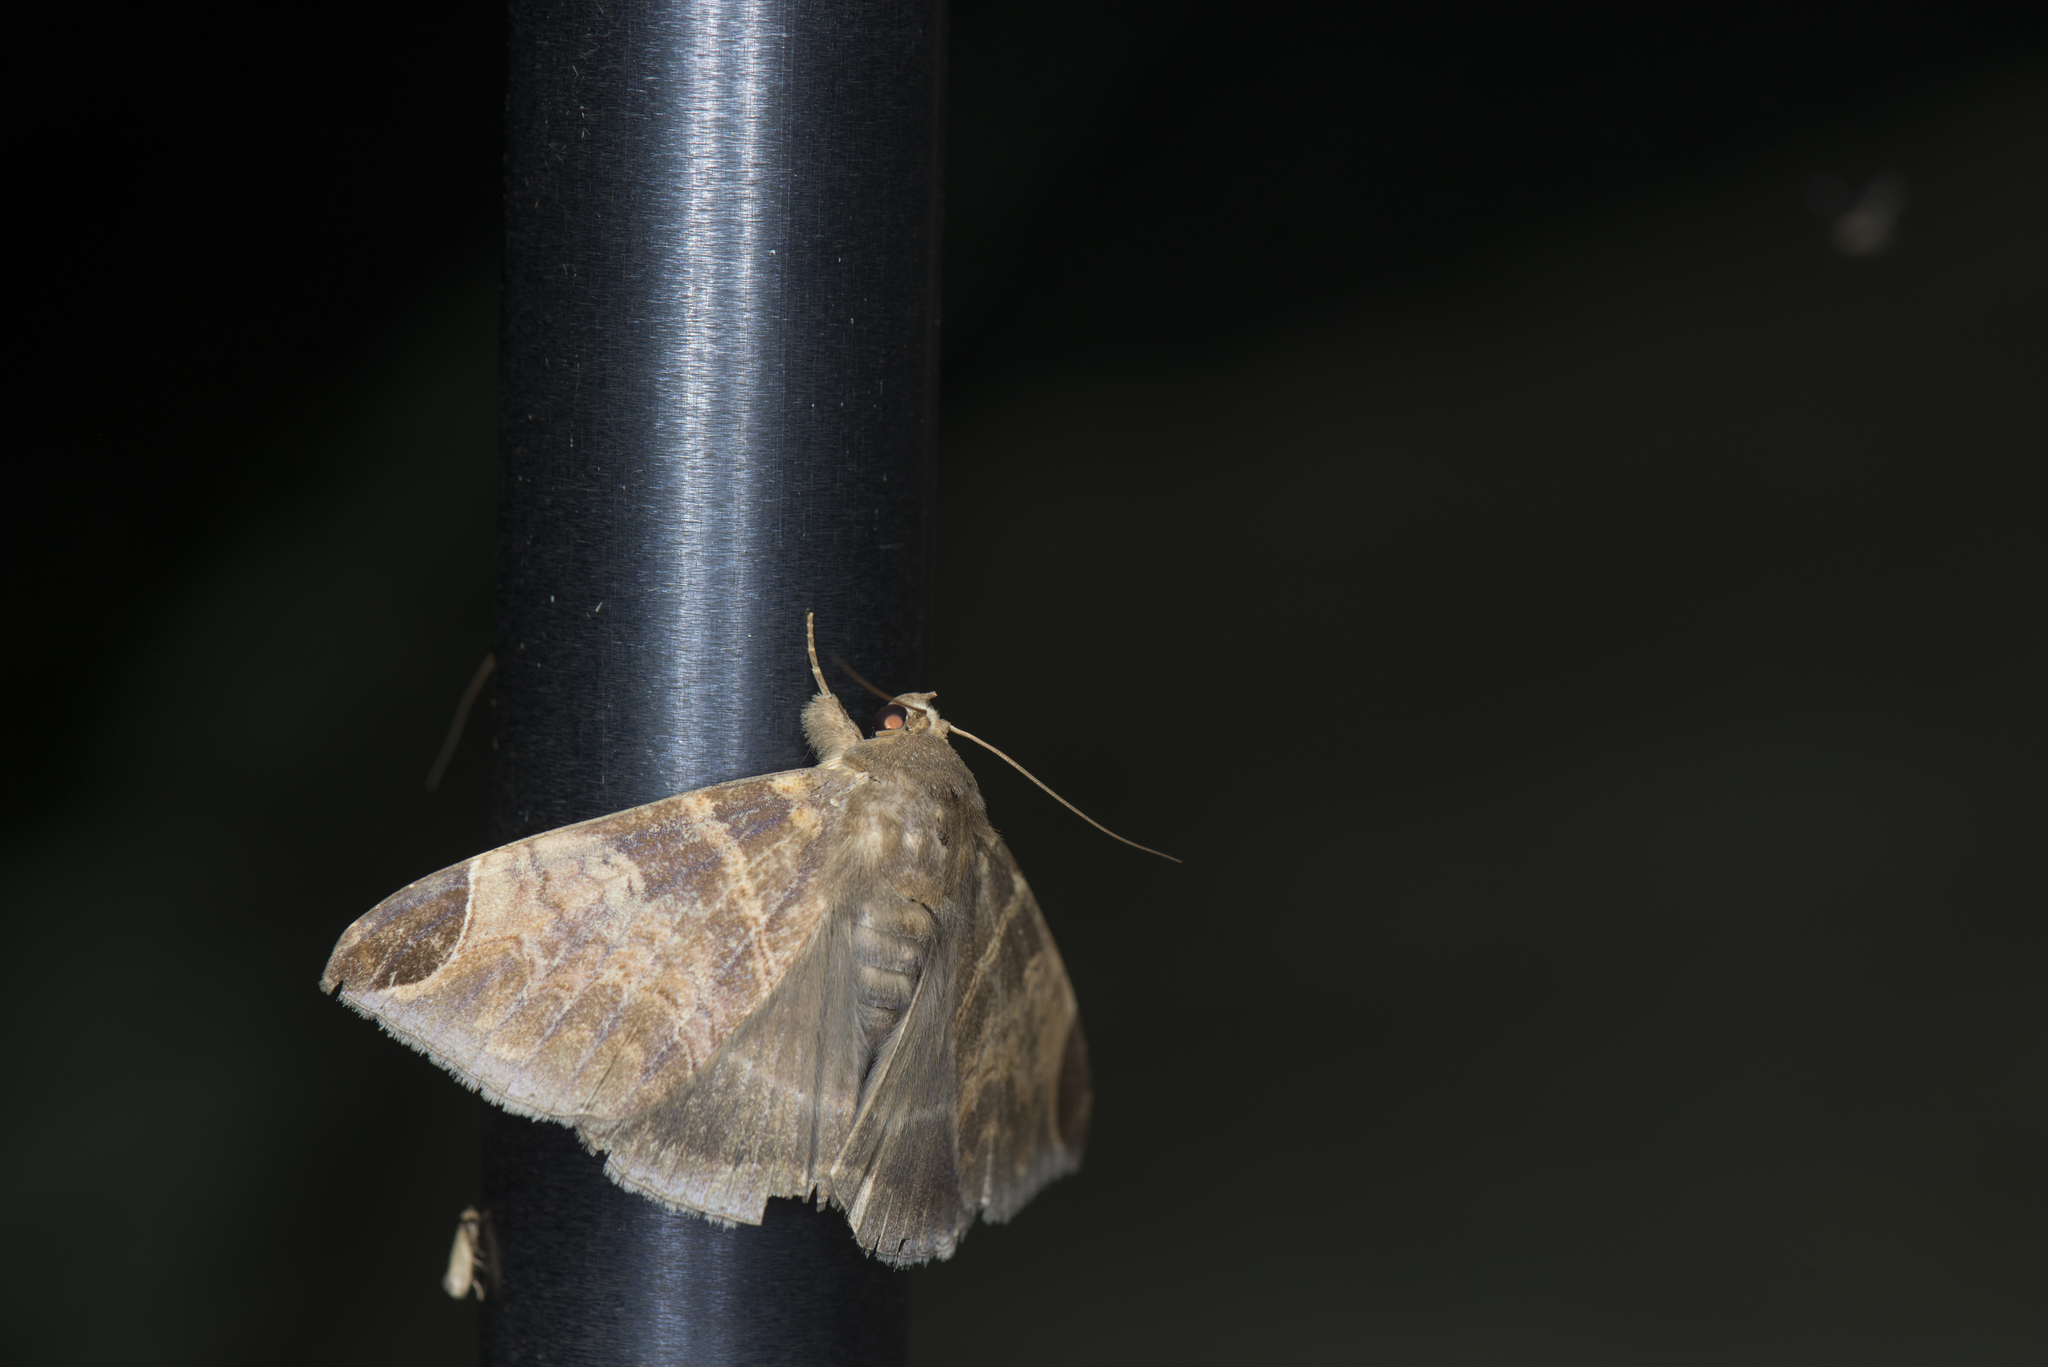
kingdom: Animalia
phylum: Arthropoda
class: Insecta
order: Lepidoptera
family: Erebidae
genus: Pindara
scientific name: Pindara illibata
